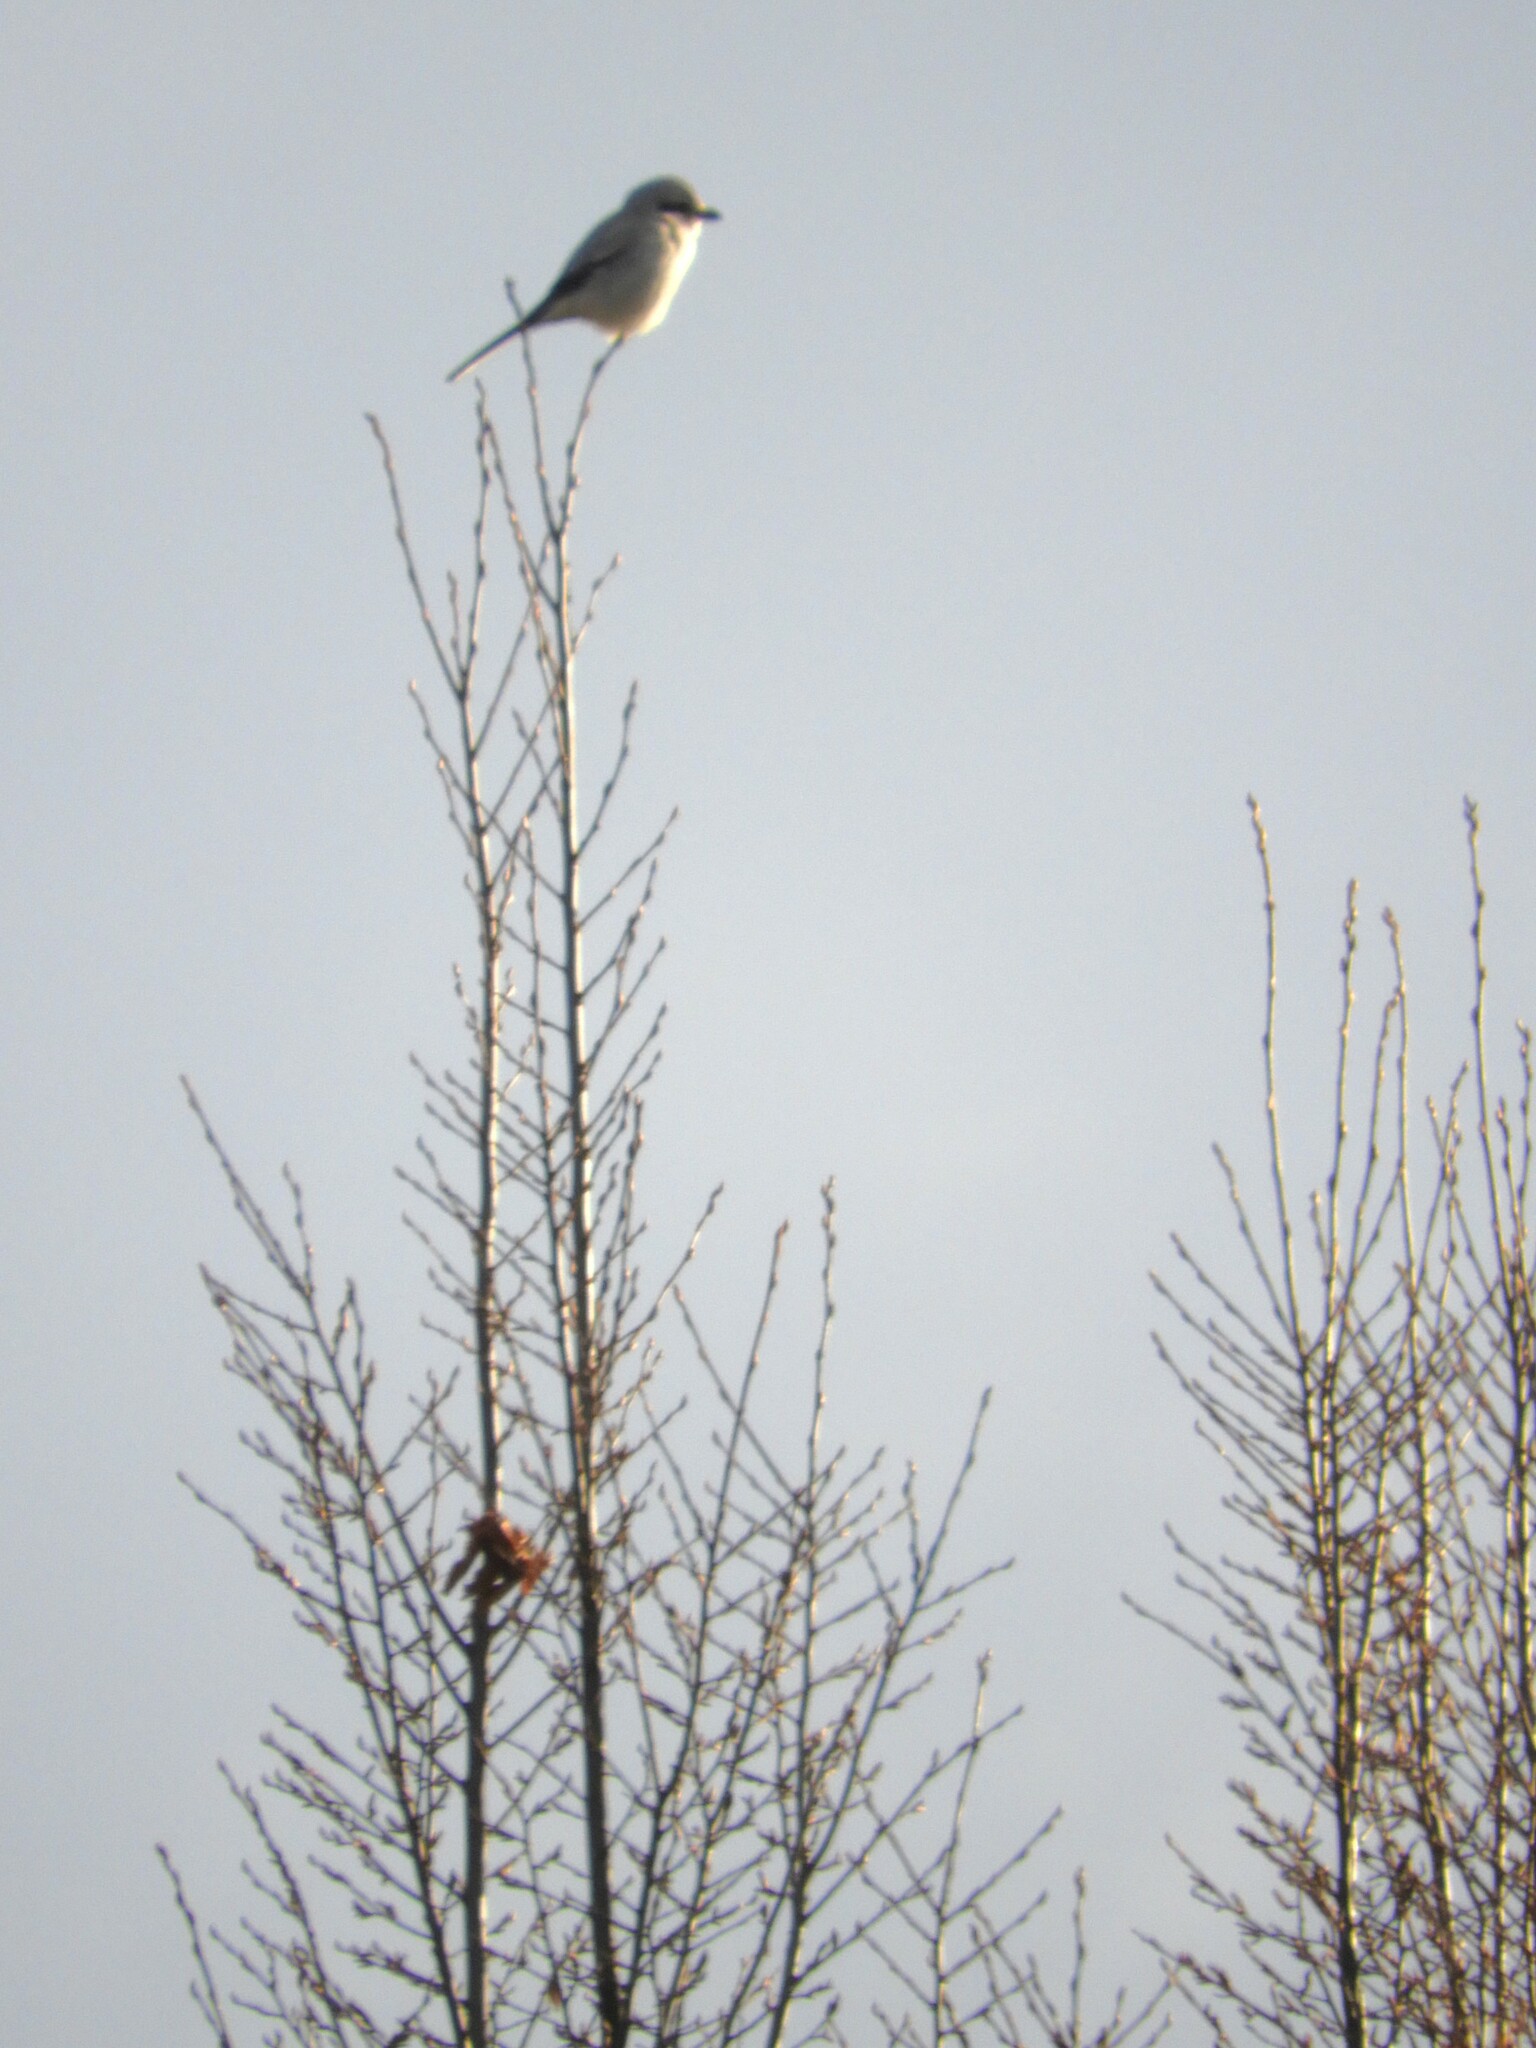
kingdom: Animalia
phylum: Chordata
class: Aves
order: Passeriformes
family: Laniidae
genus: Lanius
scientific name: Lanius borealis
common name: Northern shrike
